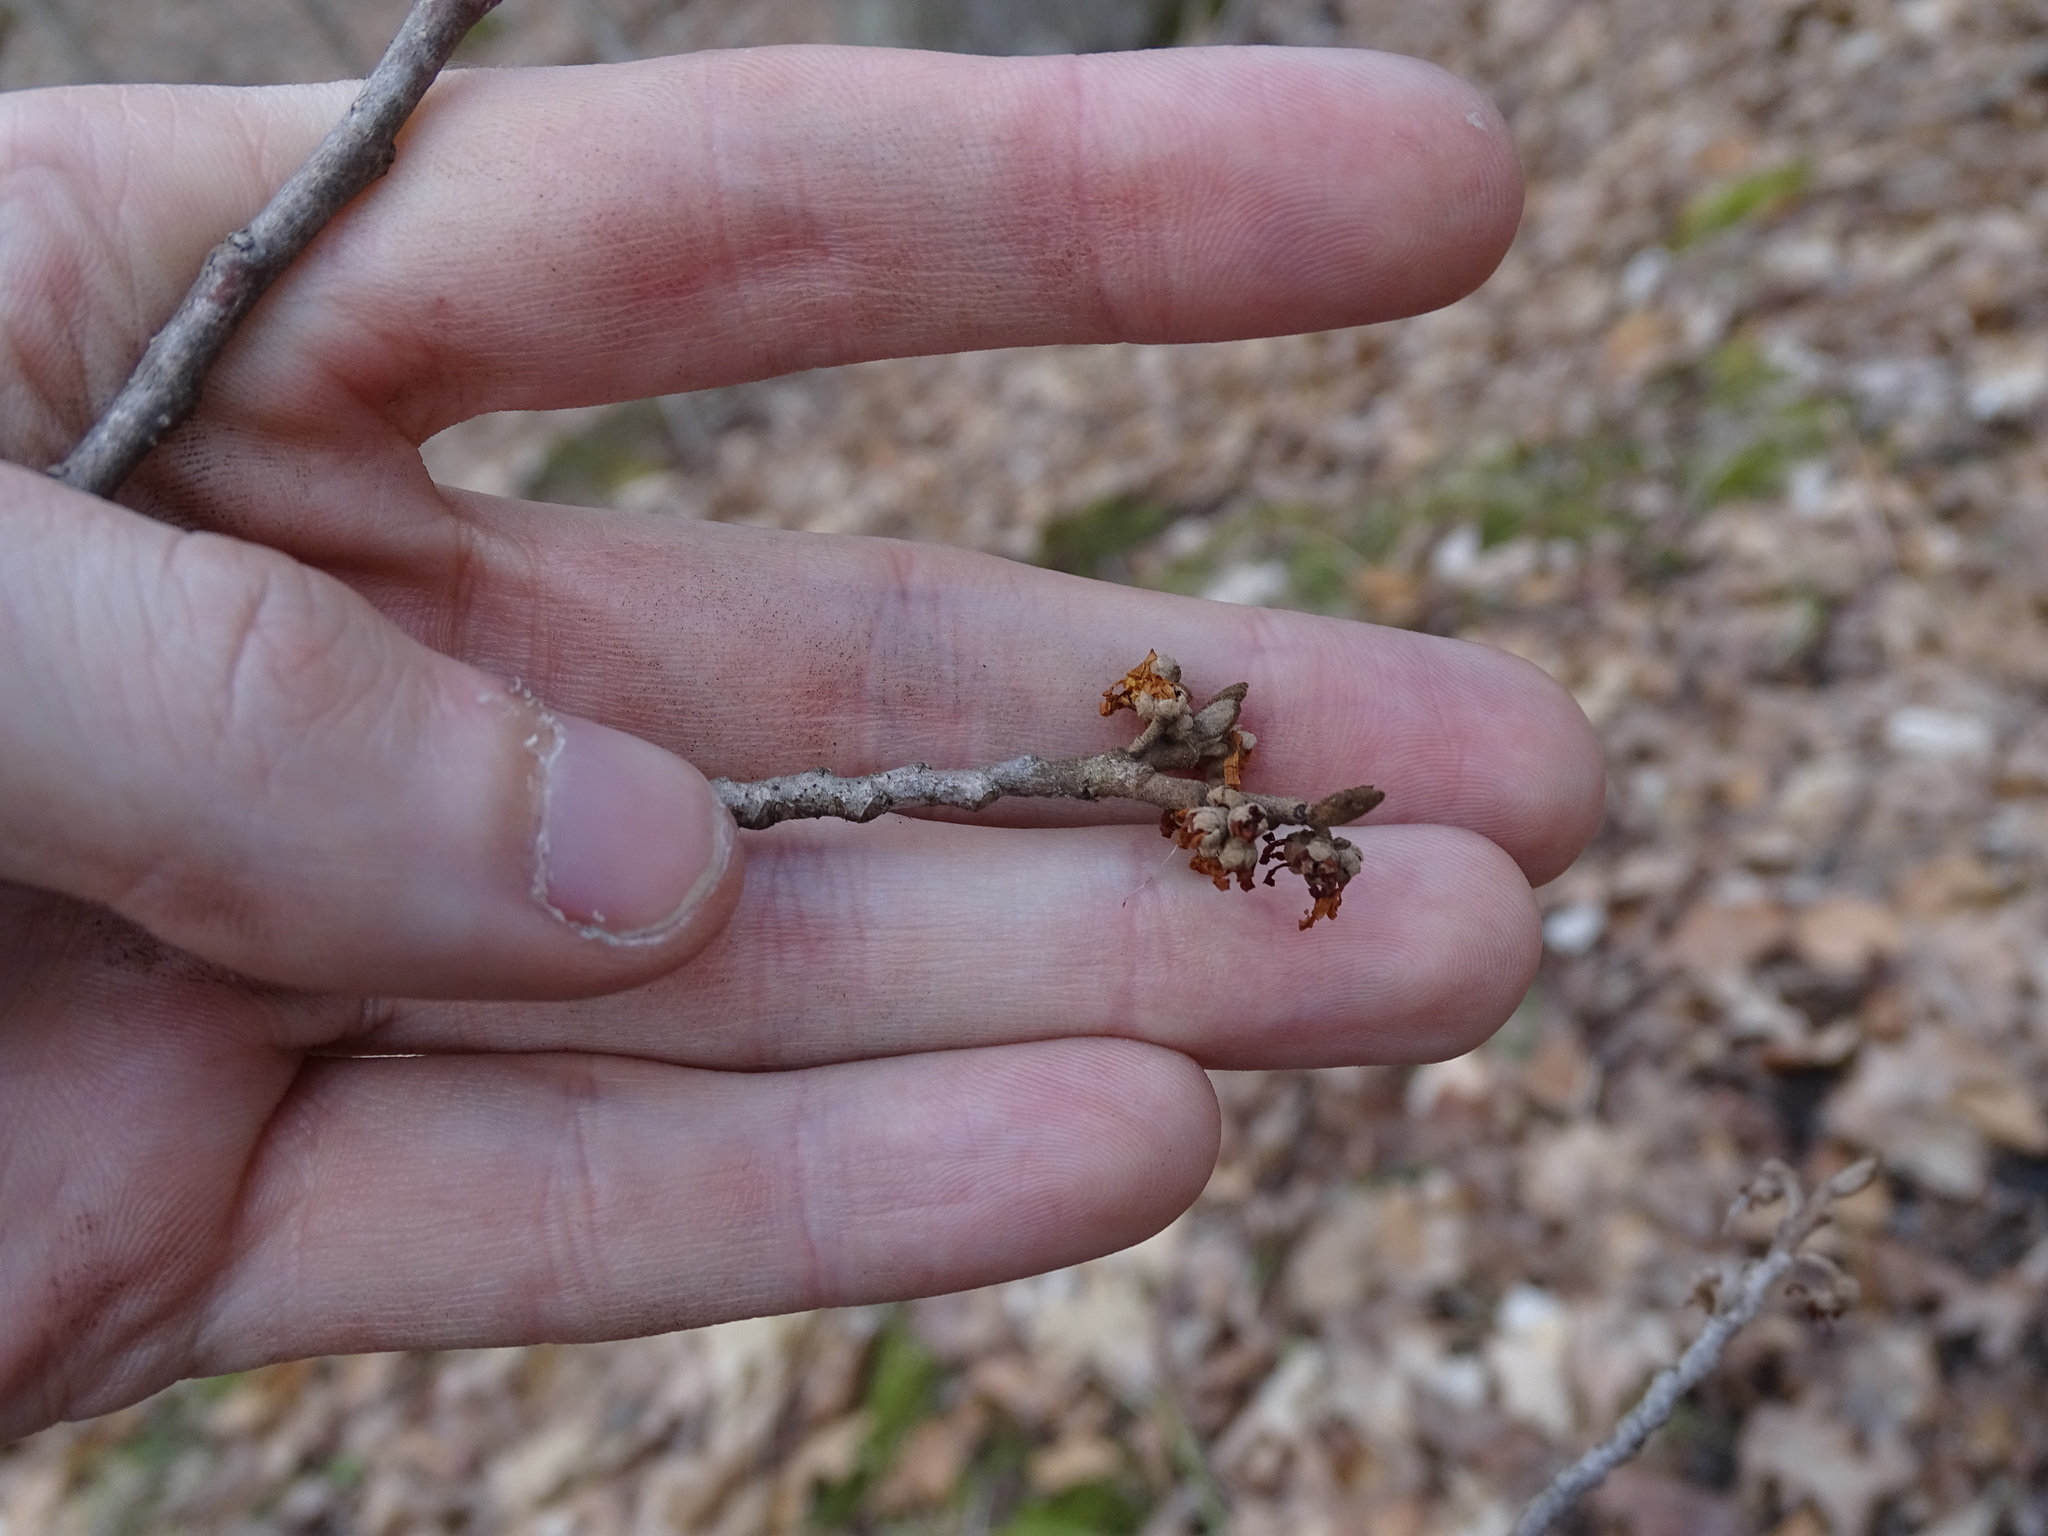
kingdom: Plantae
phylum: Tracheophyta
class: Magnoliopsida
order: Saxifragales
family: Hamamelidaceae
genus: Hamamelis
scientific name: Hamamelis virginiana
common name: Witch-hazel
